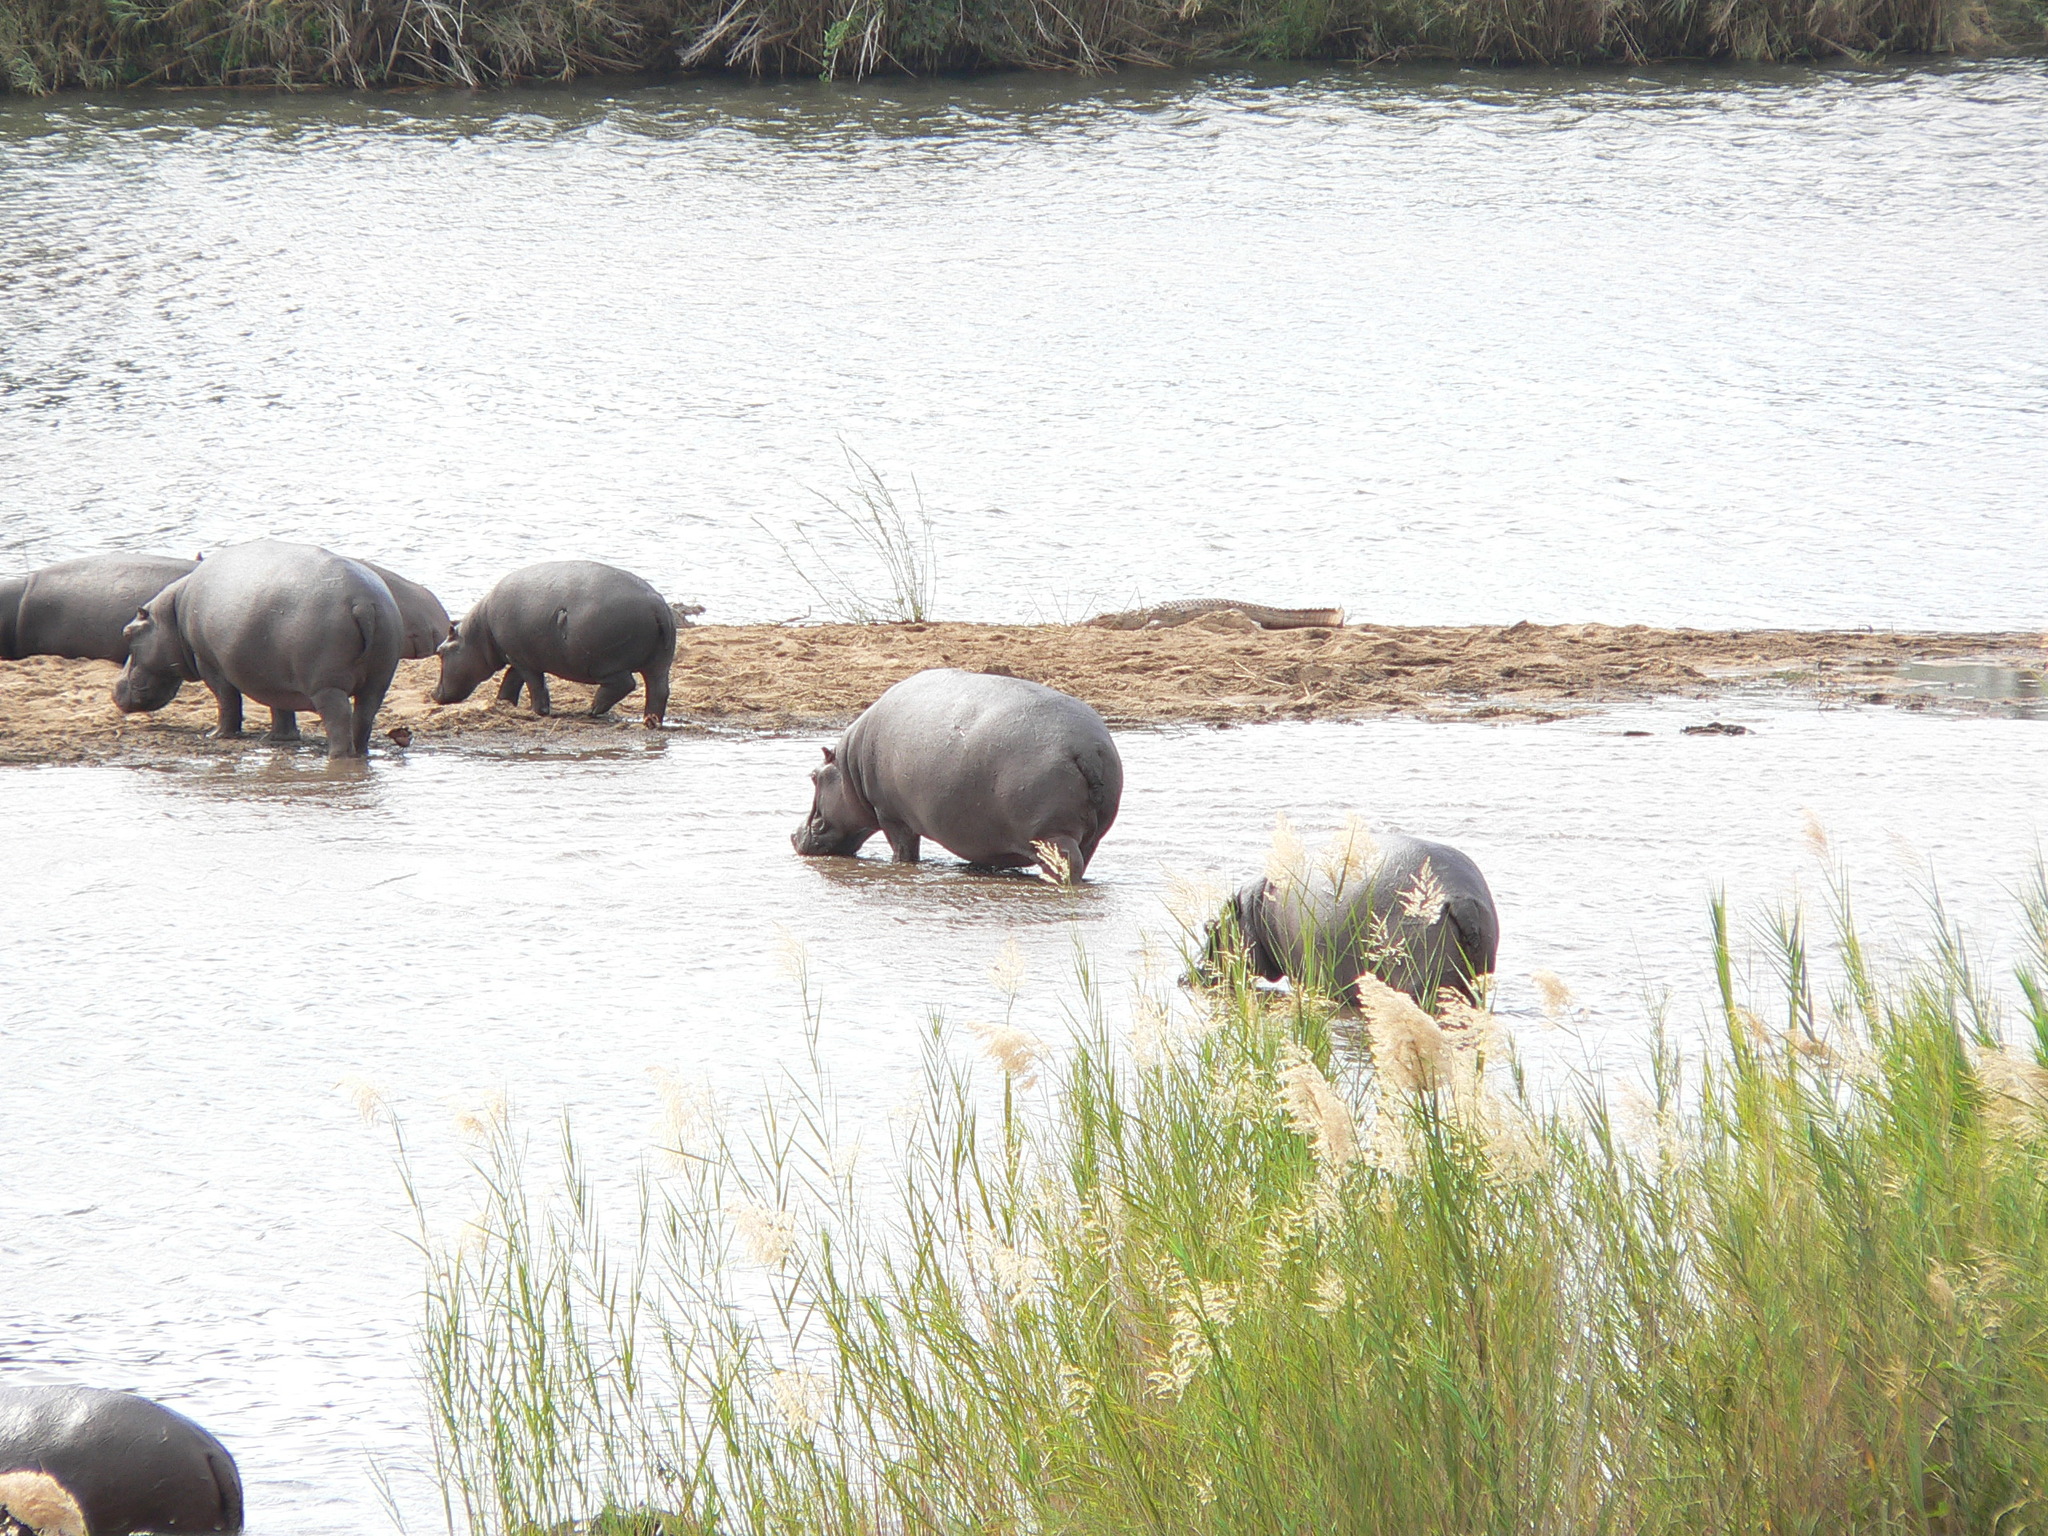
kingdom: Animalia
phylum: Chordata
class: Mammalia
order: Artiodactyla
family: Hippopotamidae
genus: Hippopotamus
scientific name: Hippopotamus amphibius
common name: Common hippopotamus
